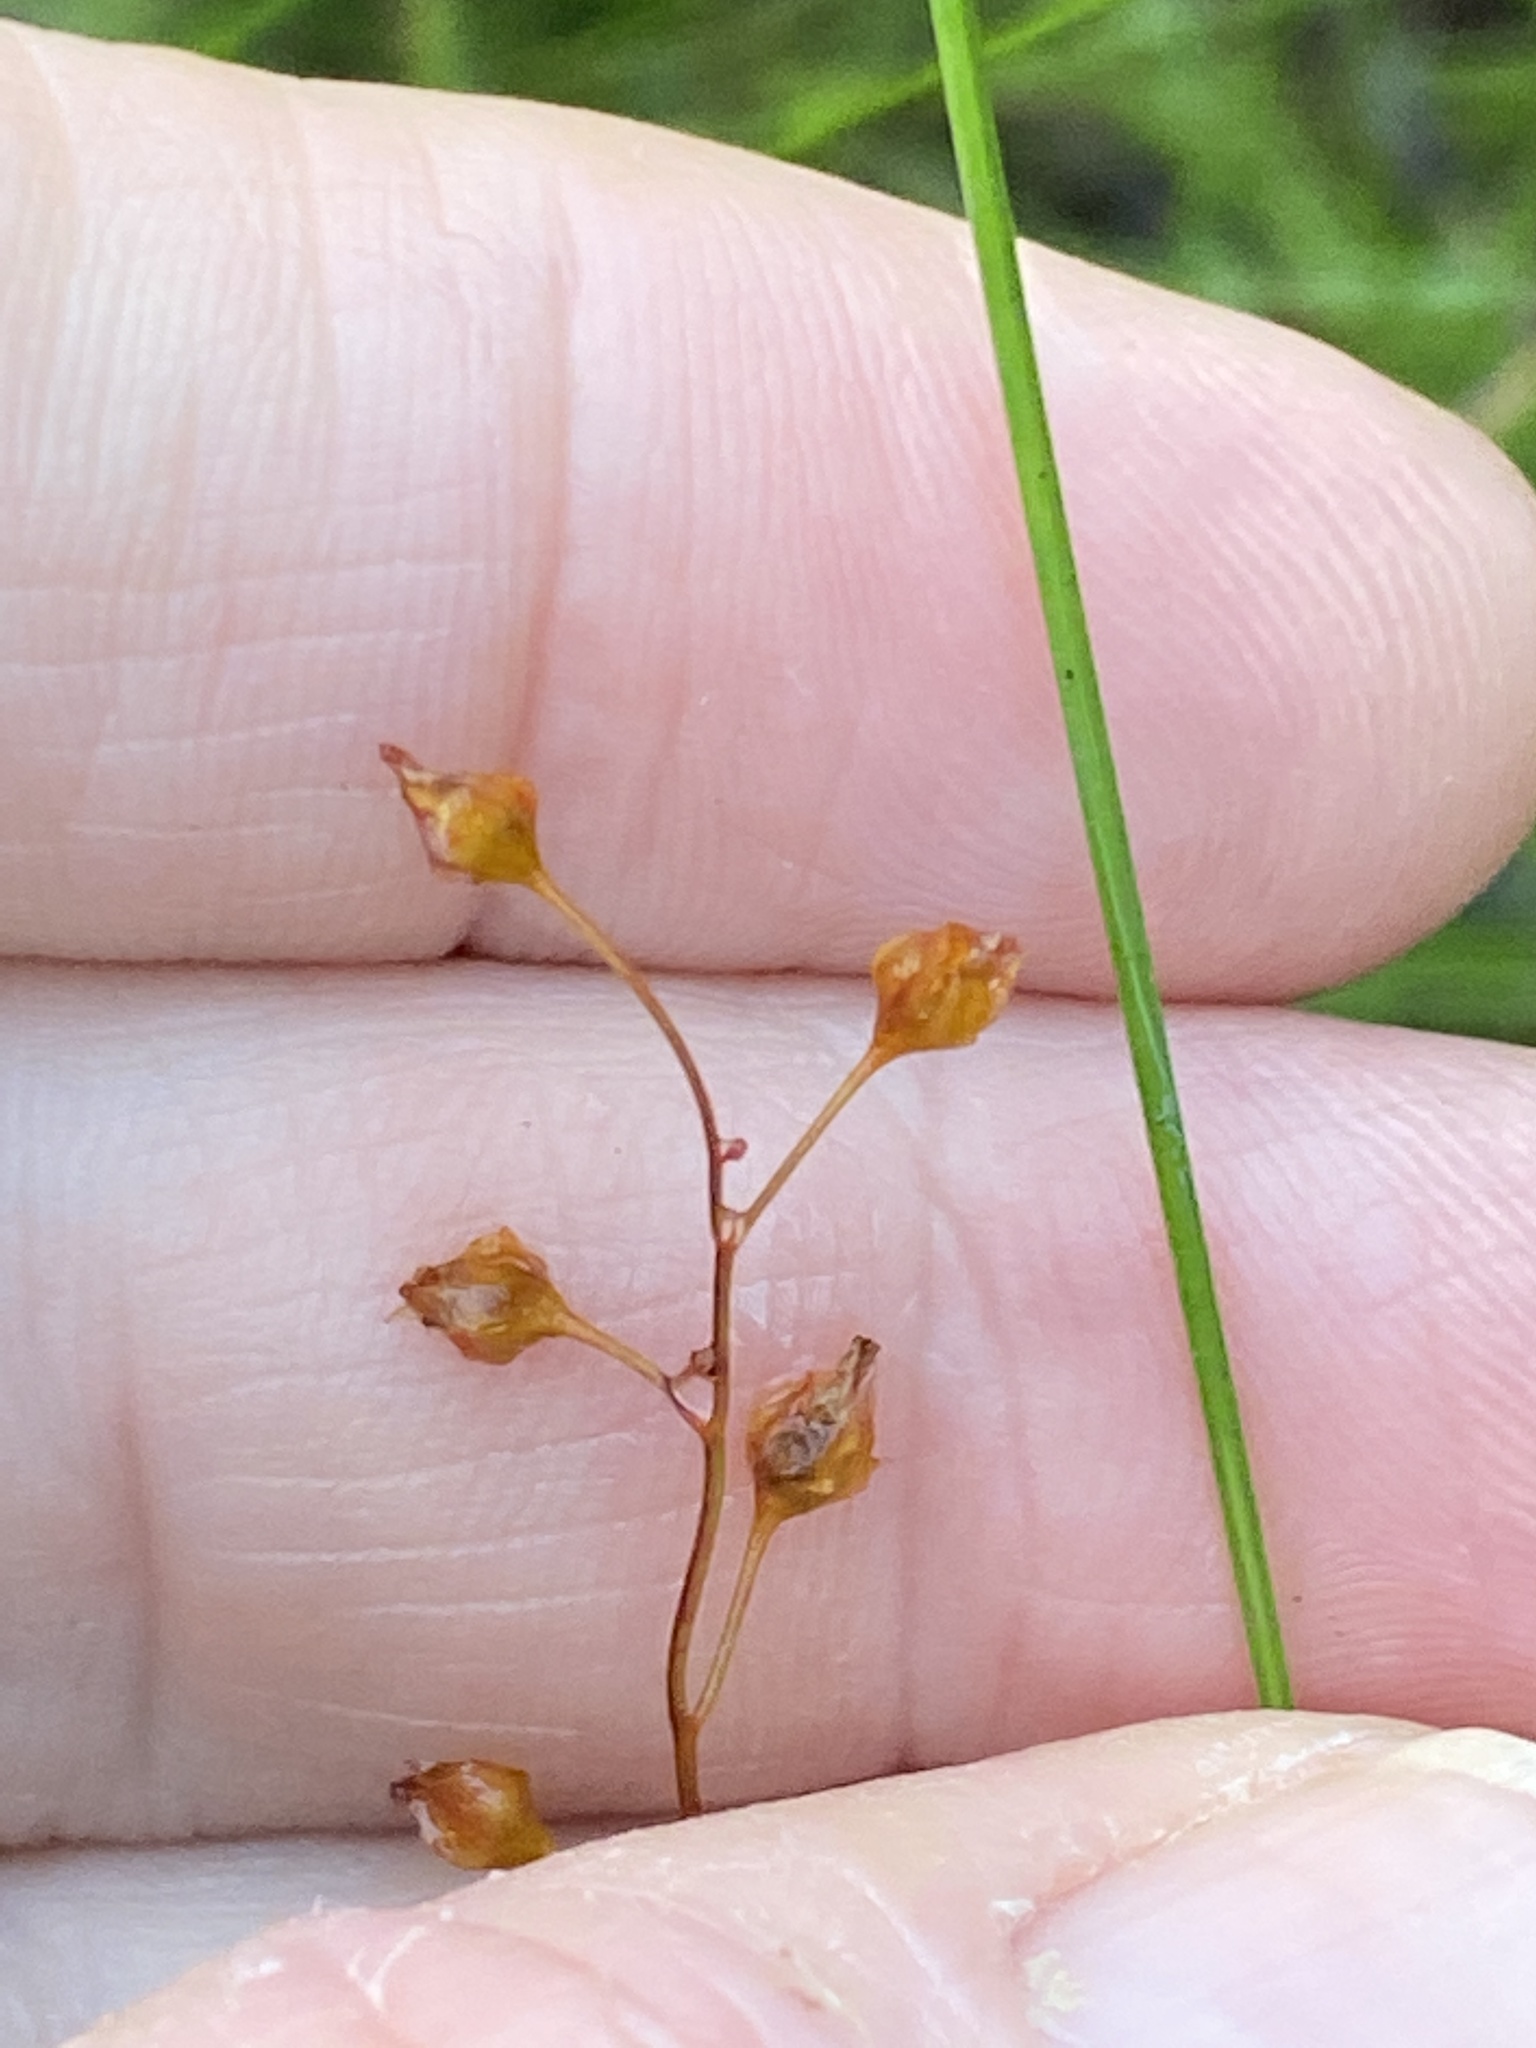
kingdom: Plantae
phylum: Tracheophyta
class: Magnoliopsida
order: Caryophyllales
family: Droseraceae
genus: Drosera
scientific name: Drosera peltata
